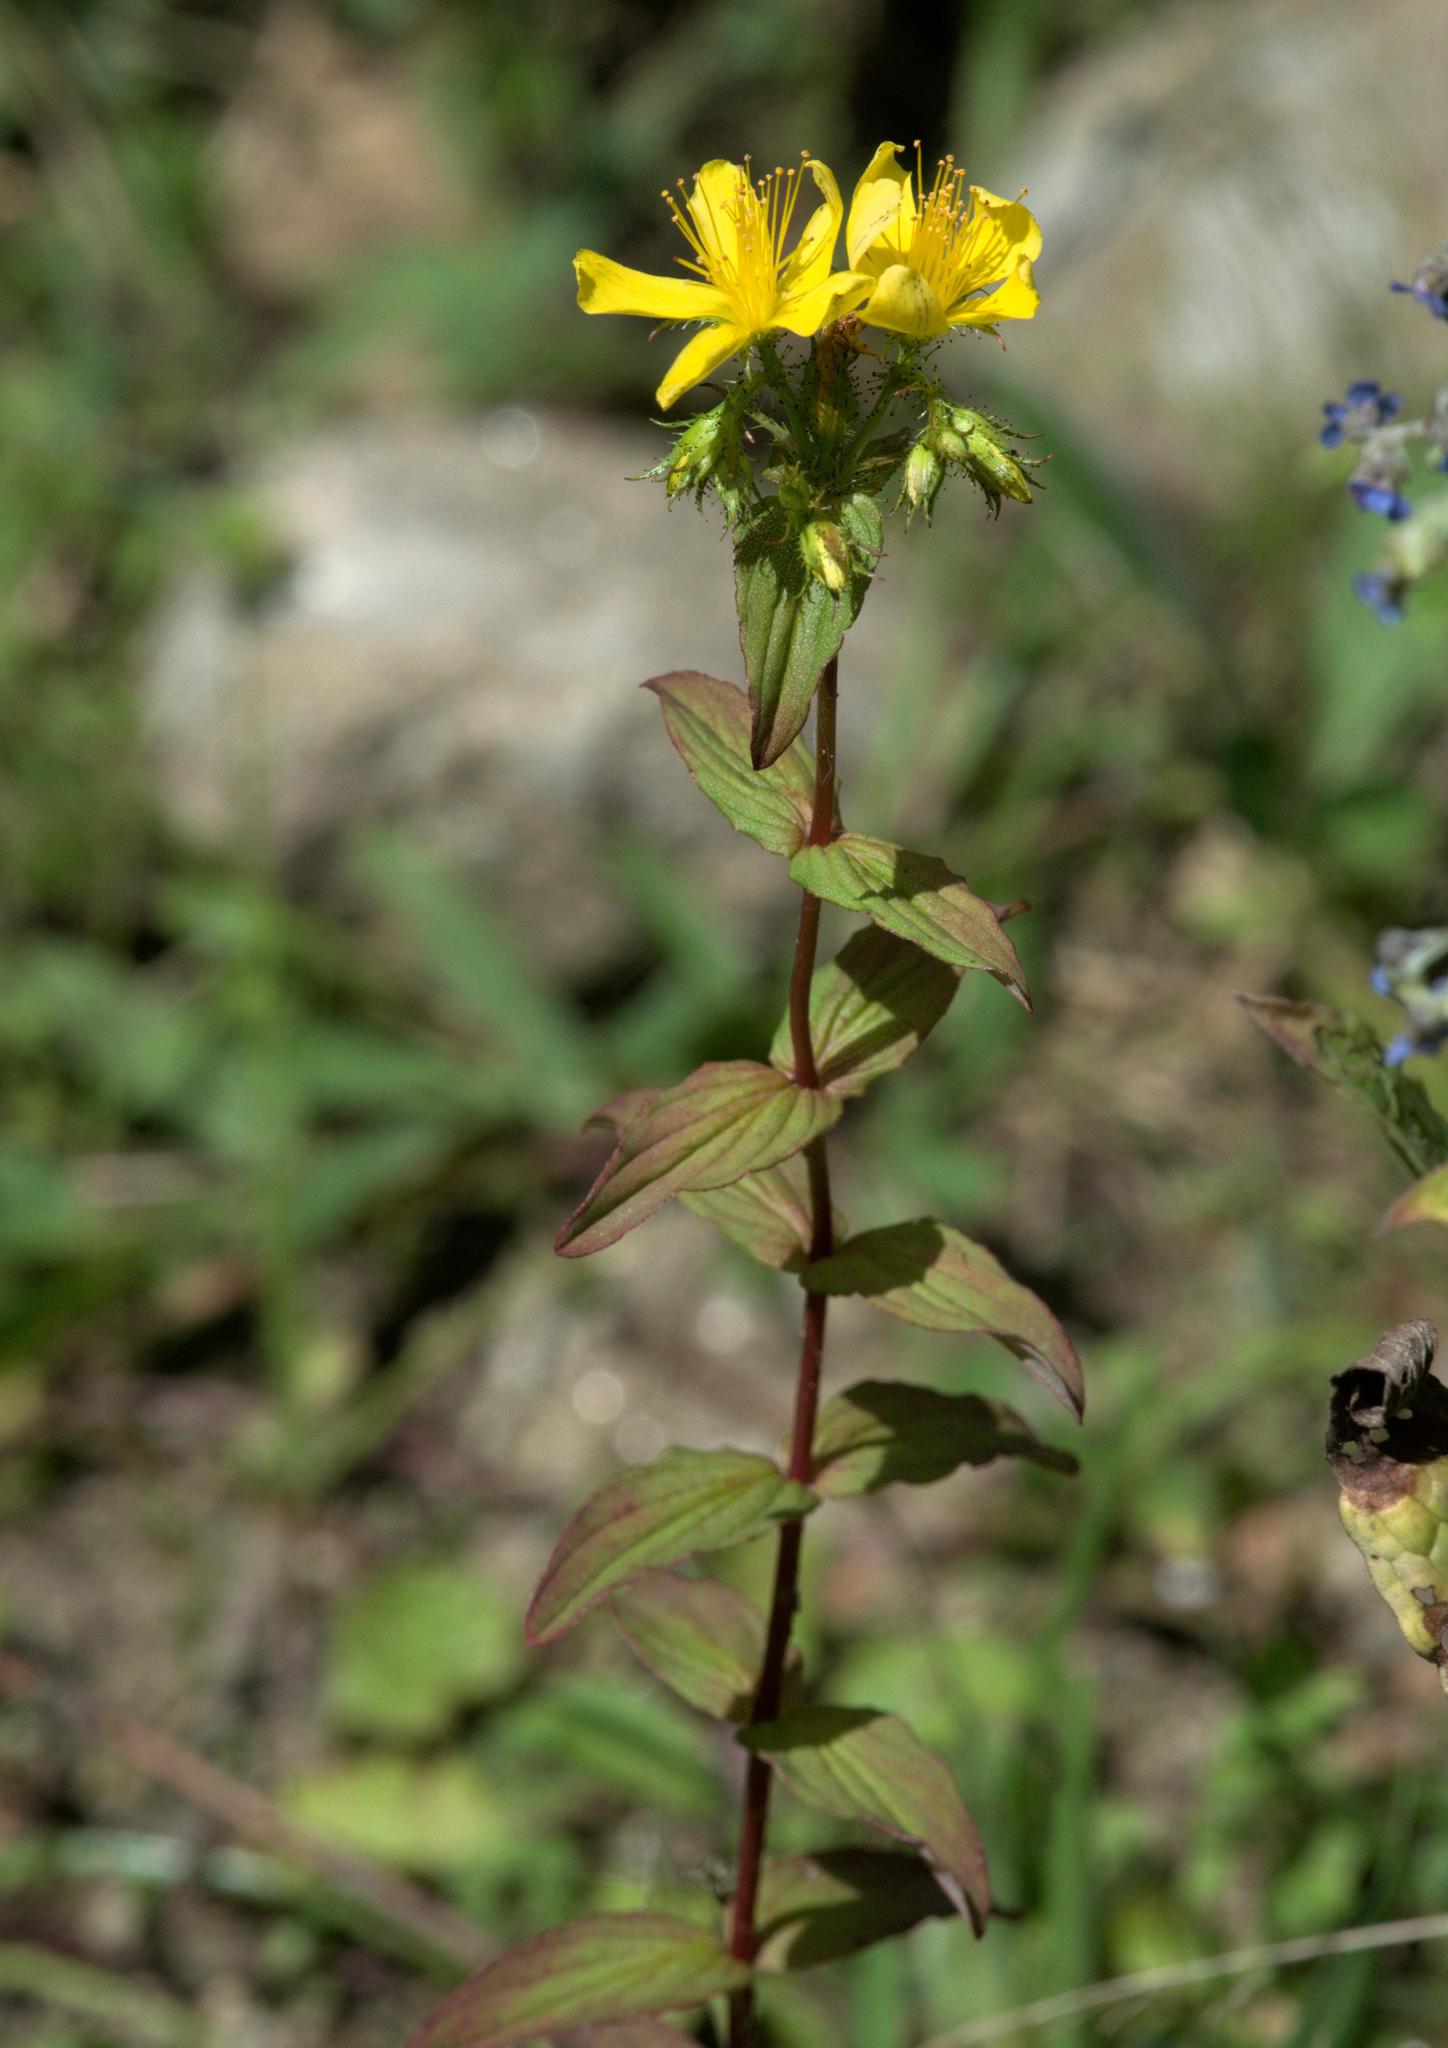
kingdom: Plantae
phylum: Tracheophyta
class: Magnoliopsida
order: Malpighiales
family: Hypericaceae
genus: Hypericum
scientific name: Hypericum elodeoides
